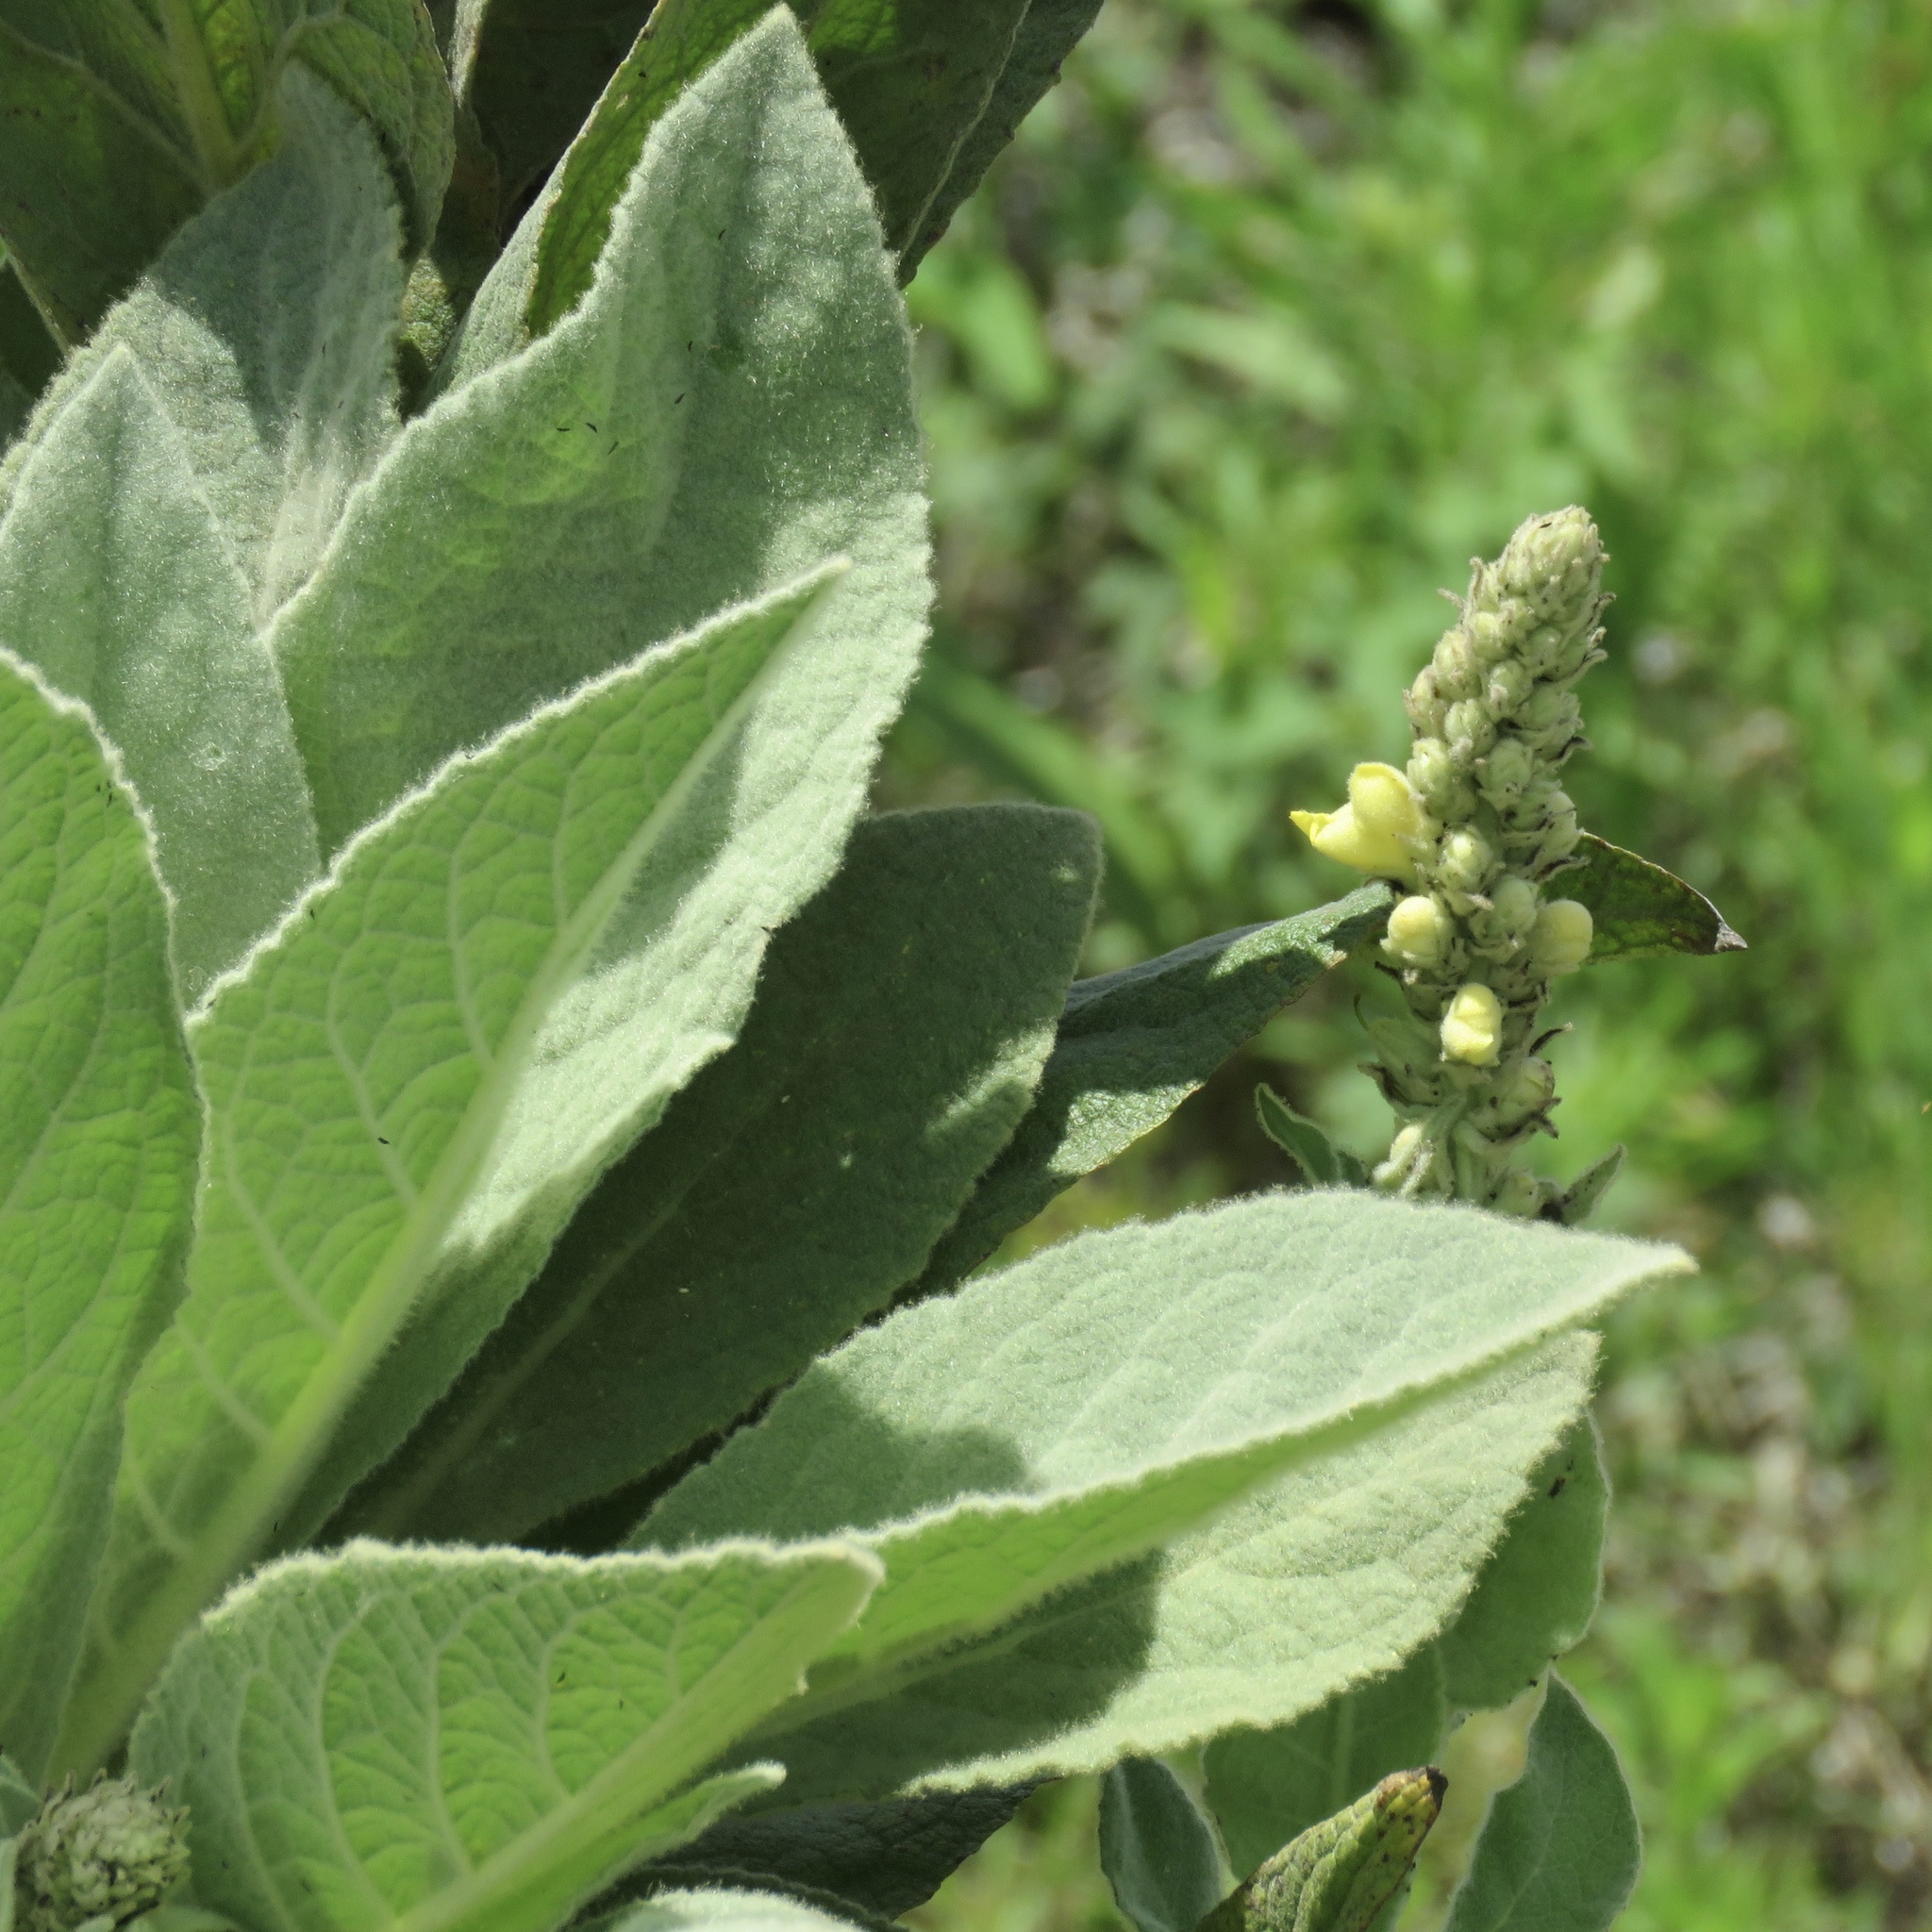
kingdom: Plantae
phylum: Tracheophyta
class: Magnoliopsida
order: Lamiales
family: Scrophulariaceae
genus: Verbascum
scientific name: Verbascum thapsus
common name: Common mullein
